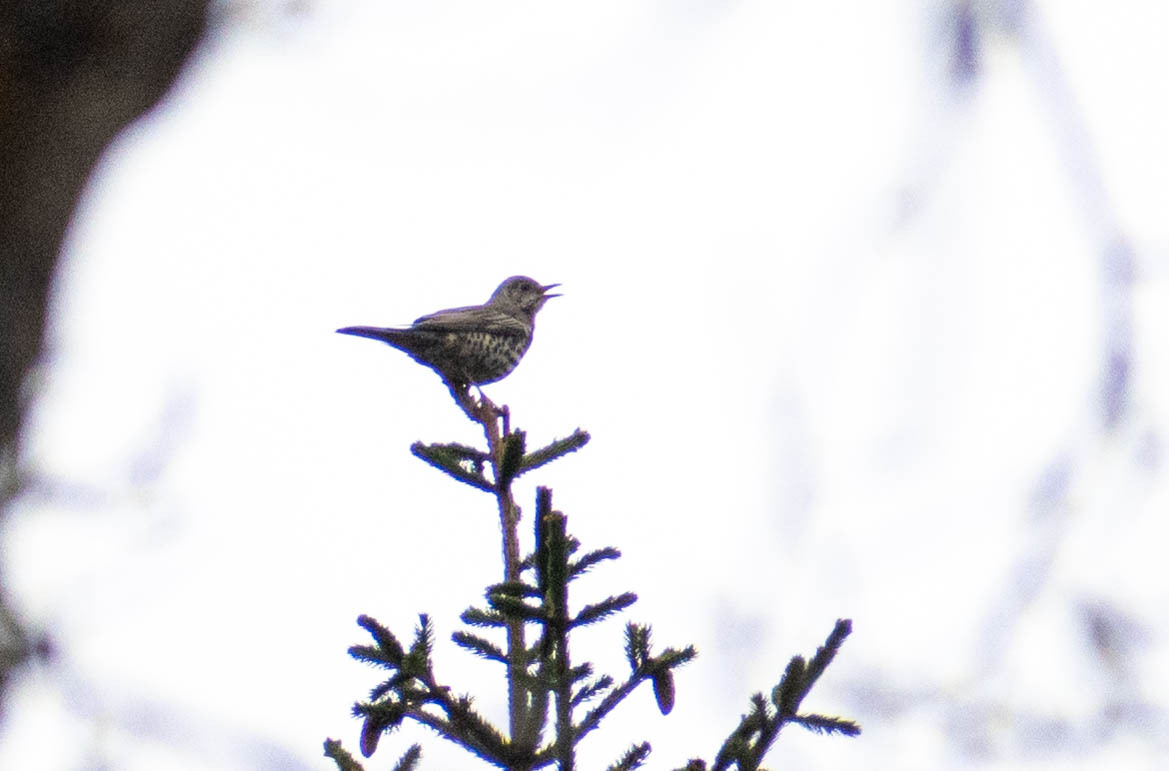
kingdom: Animalia
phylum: Chordata
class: Aves
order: Passeriformes
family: Turdidae
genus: Turdus
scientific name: Turdus viscivorus
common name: Mistle thrush
